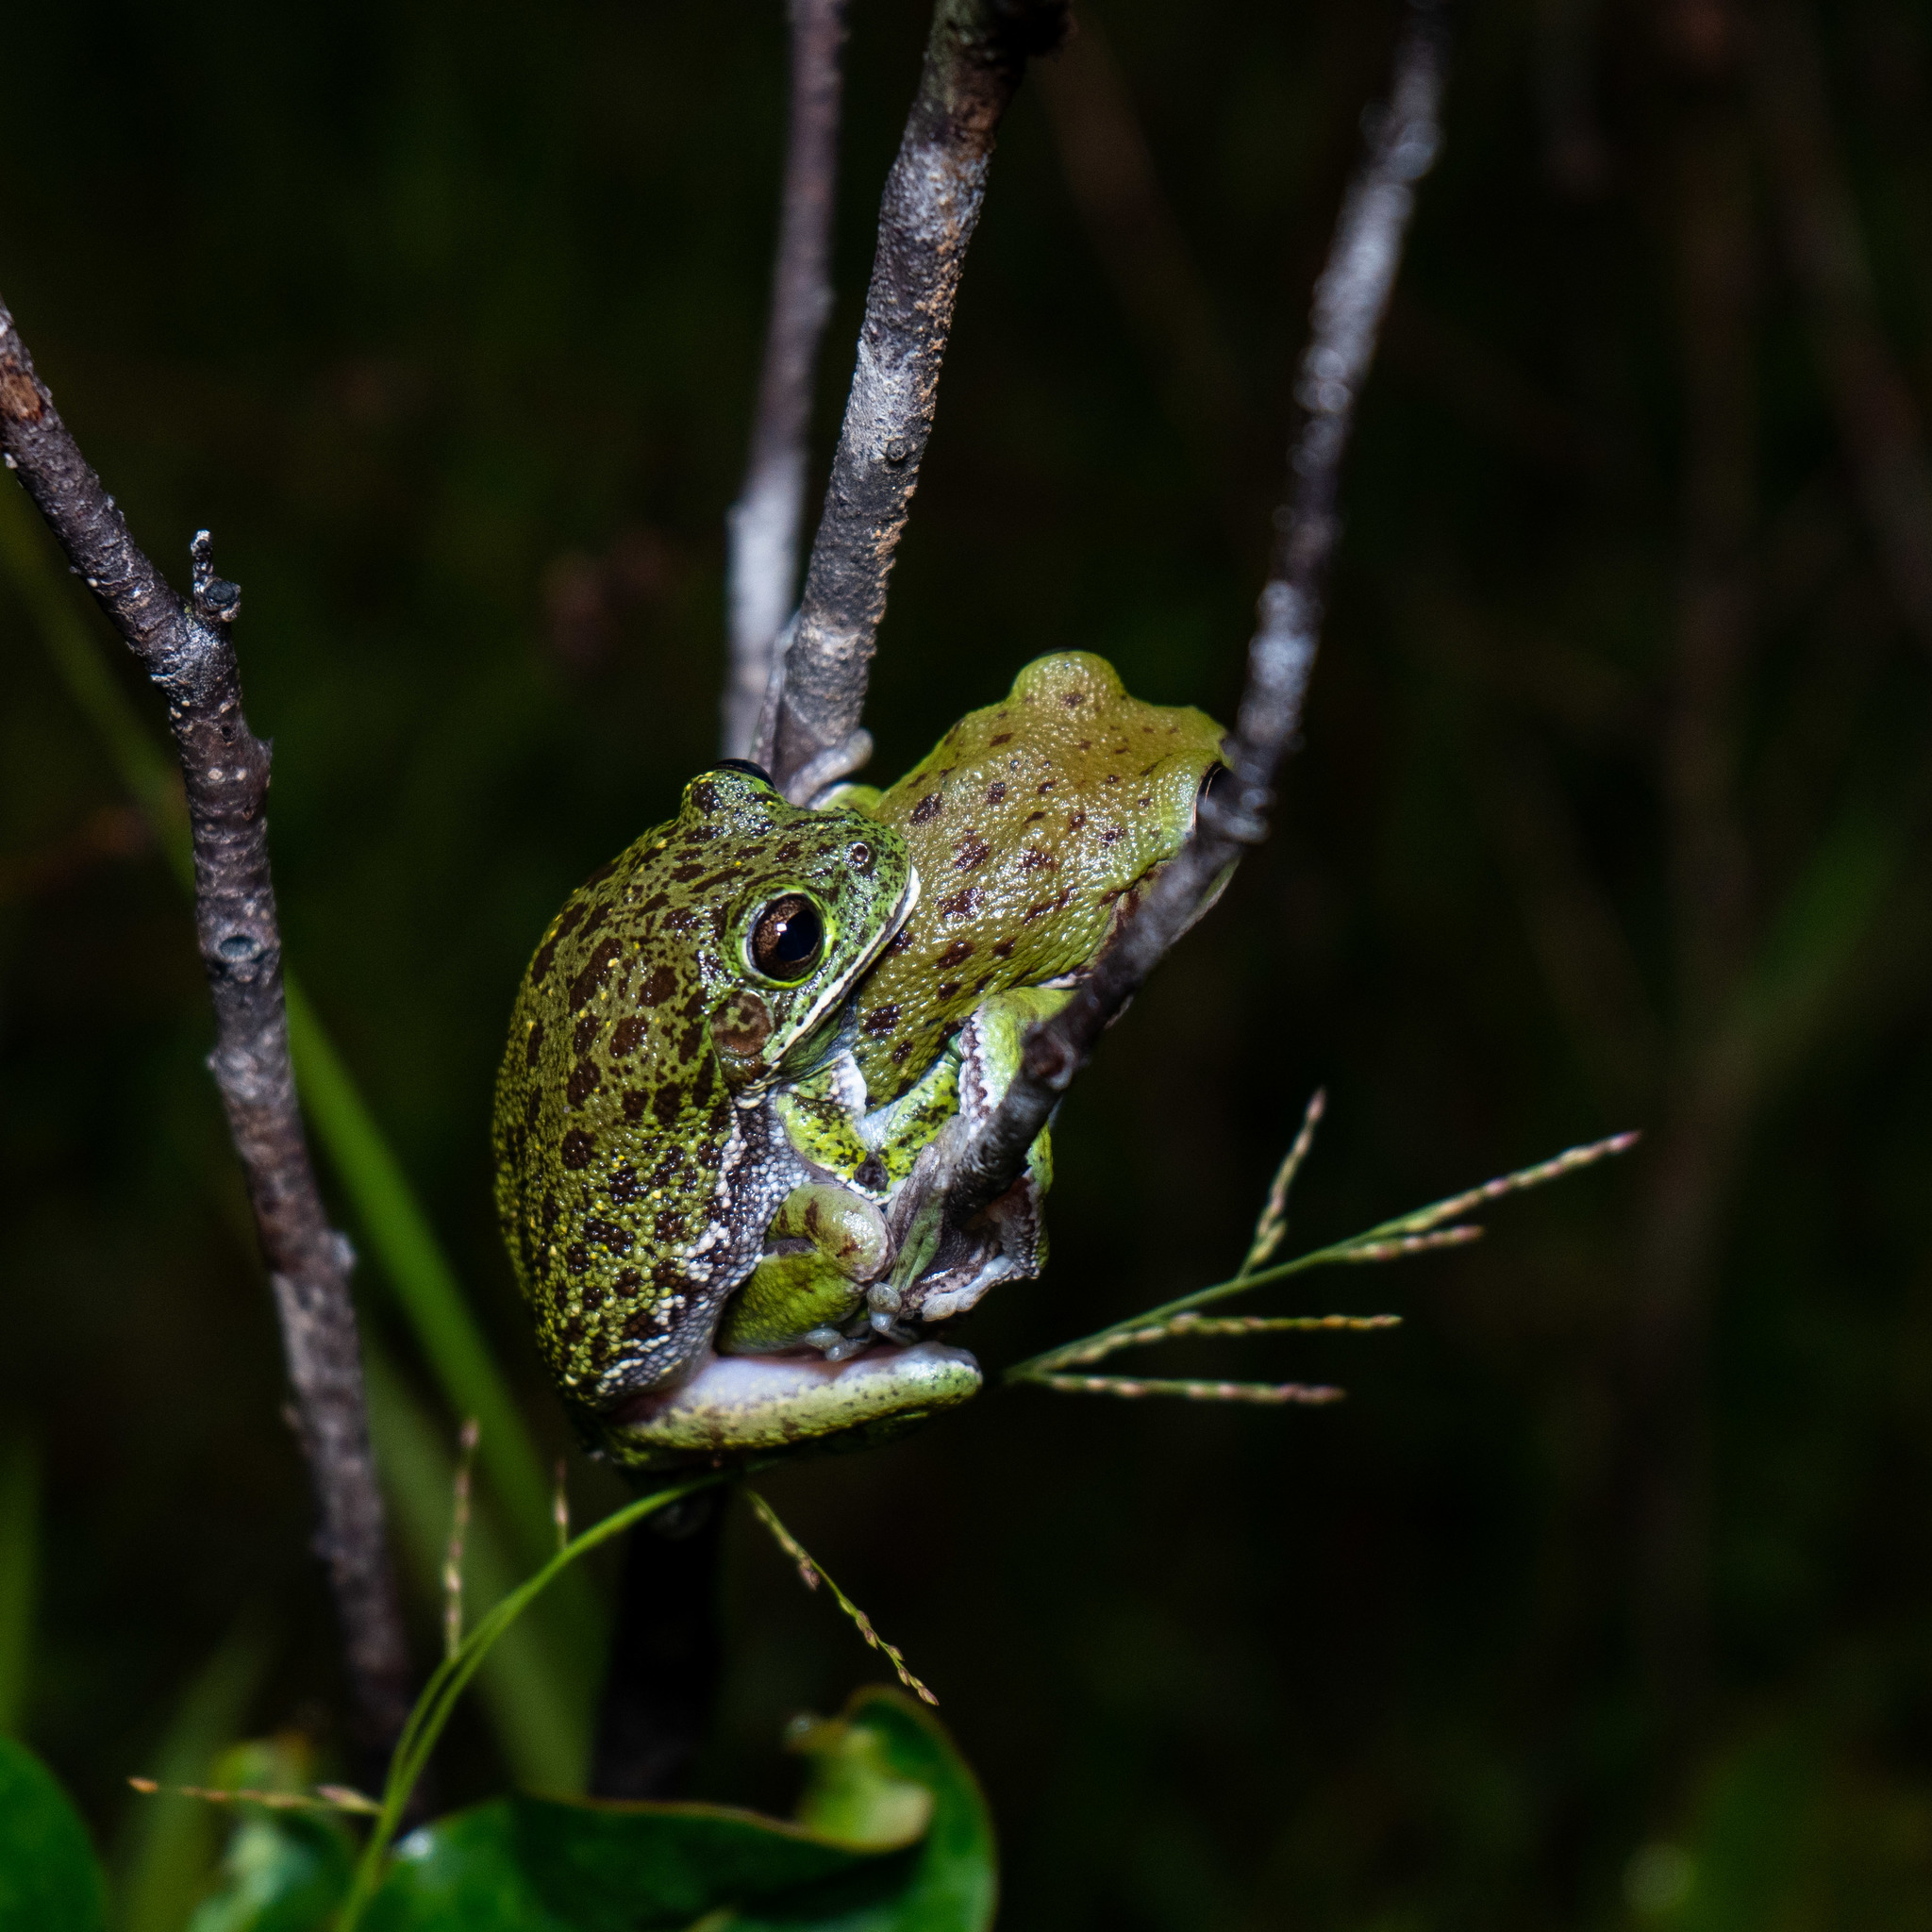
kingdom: Animalia
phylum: Chordata
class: Amphibia
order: Anura
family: Hylidae
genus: Dryophytes
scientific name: Dryophytes gratiosus
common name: Barking treefrog
